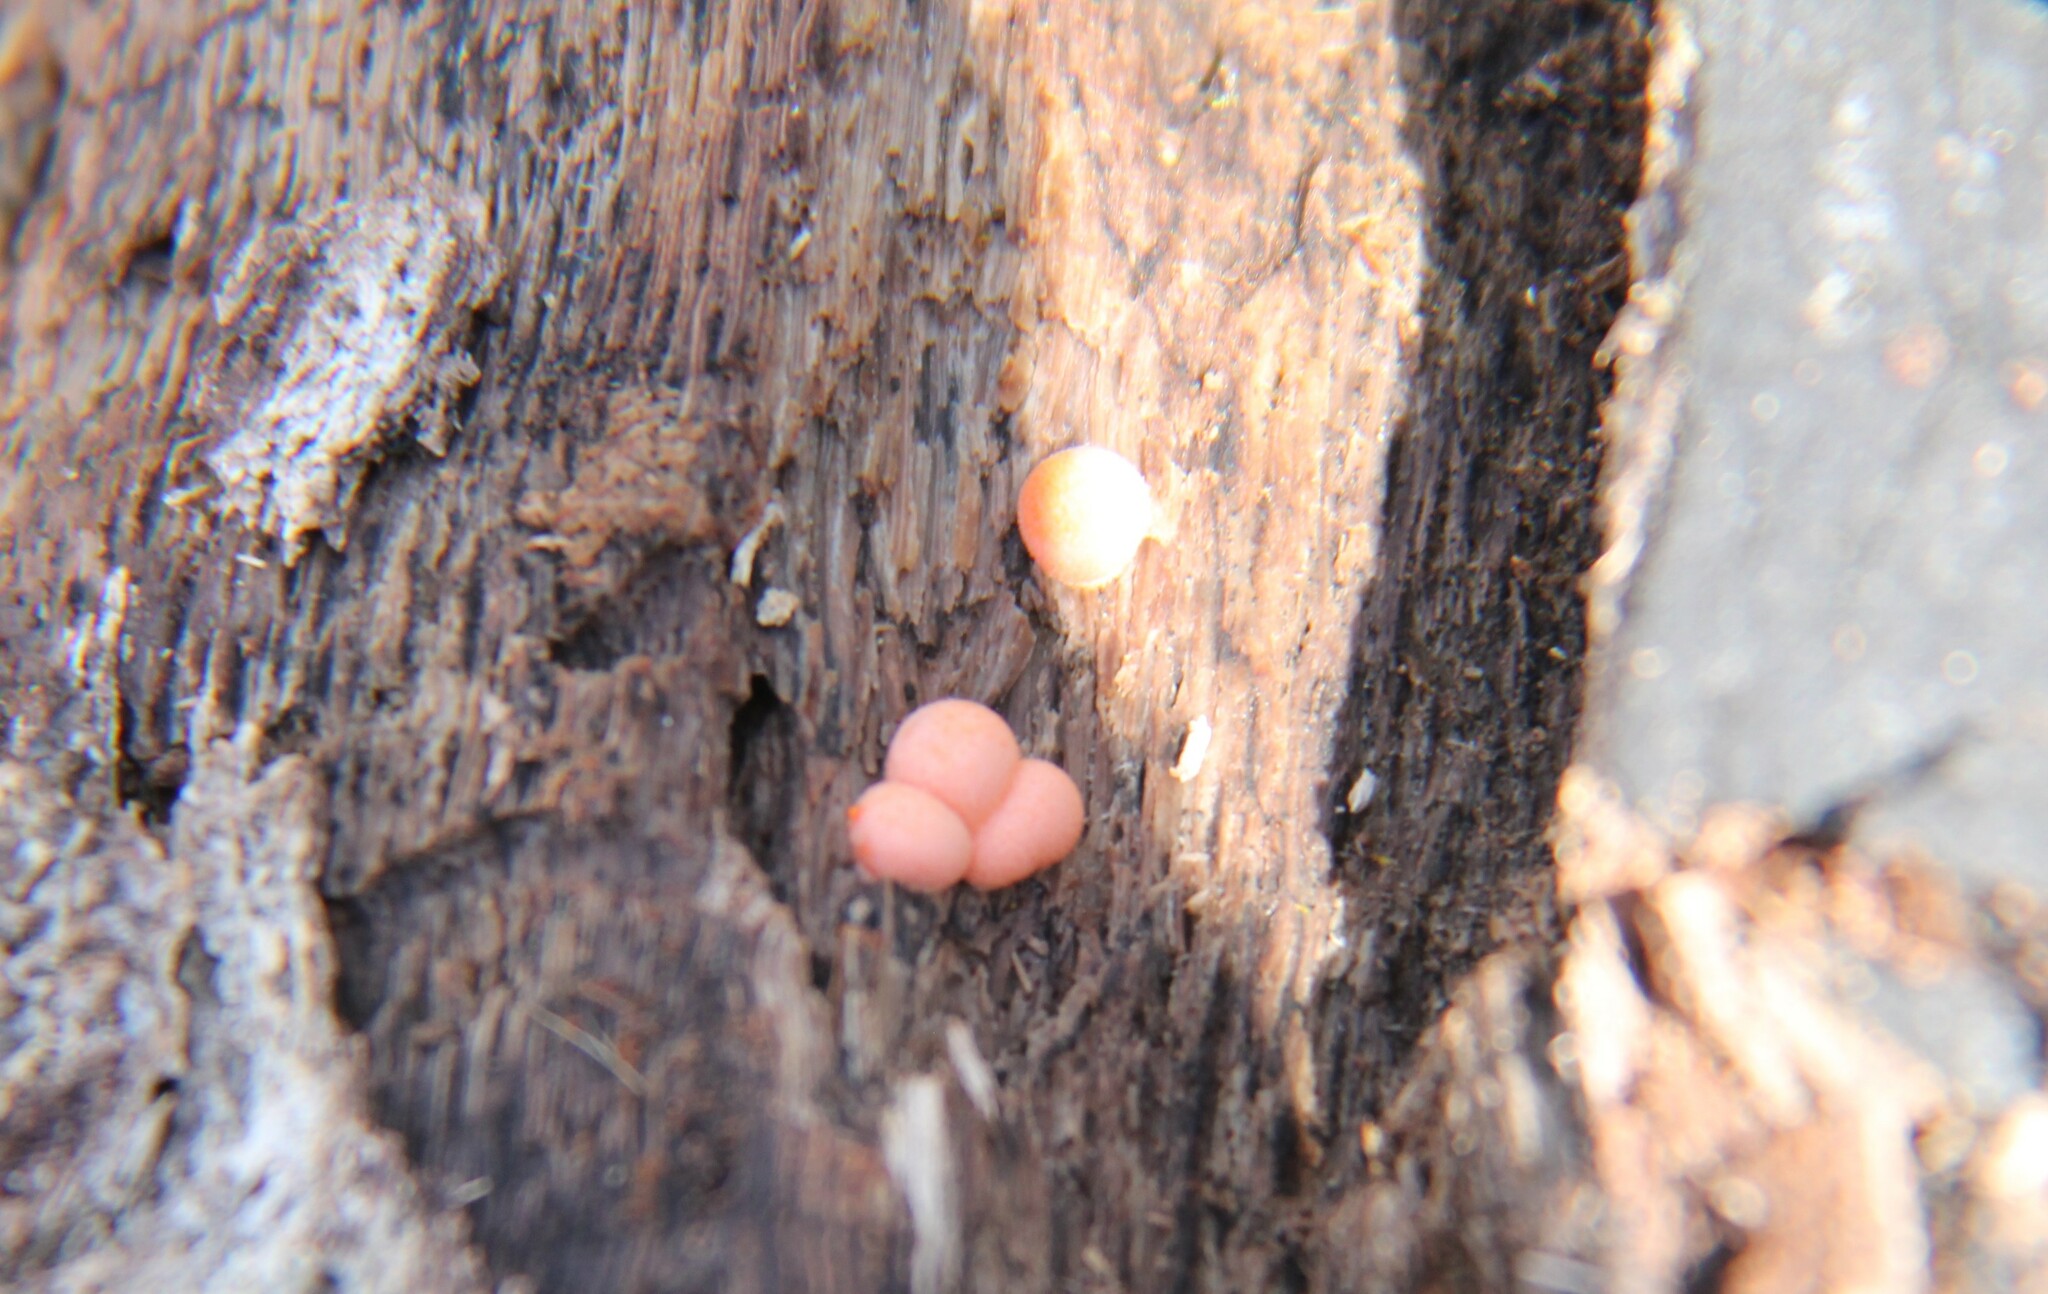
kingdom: Protozoa
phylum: Mycetozoa
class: Myxomycetes
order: Cribrariales
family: Tubiferaceae
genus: Lycogala
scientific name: Lycogala epidendrum
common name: Wolf's milk
